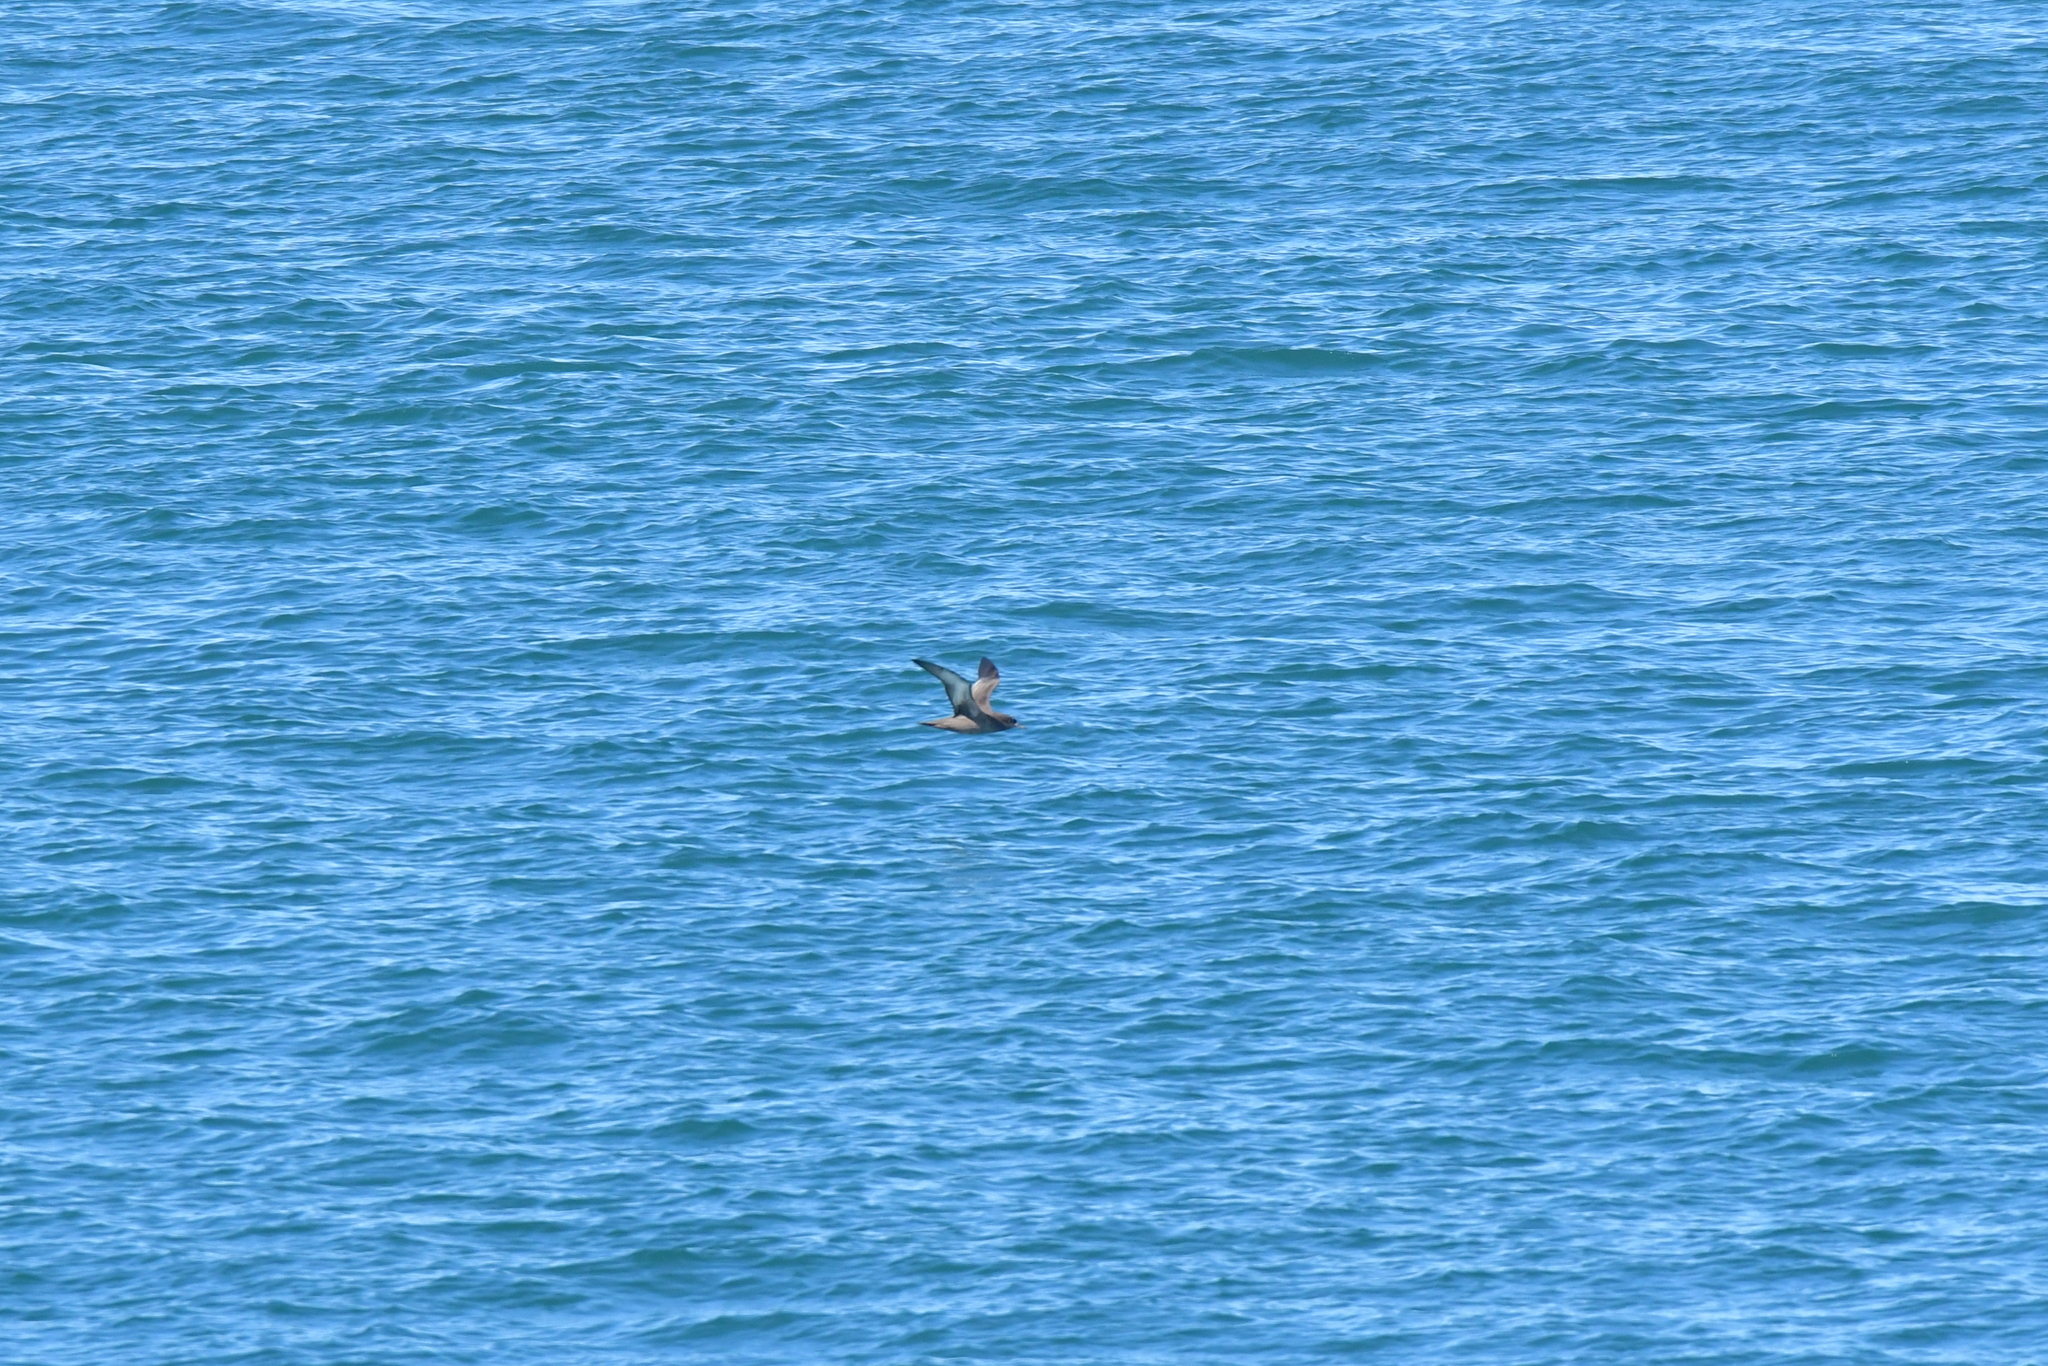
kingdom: Animalia
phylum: Chordata
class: Aves
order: Procellariiformes
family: Procellariidae
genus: Puffinus
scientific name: Puffinus griseus
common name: Sooty shearwater
